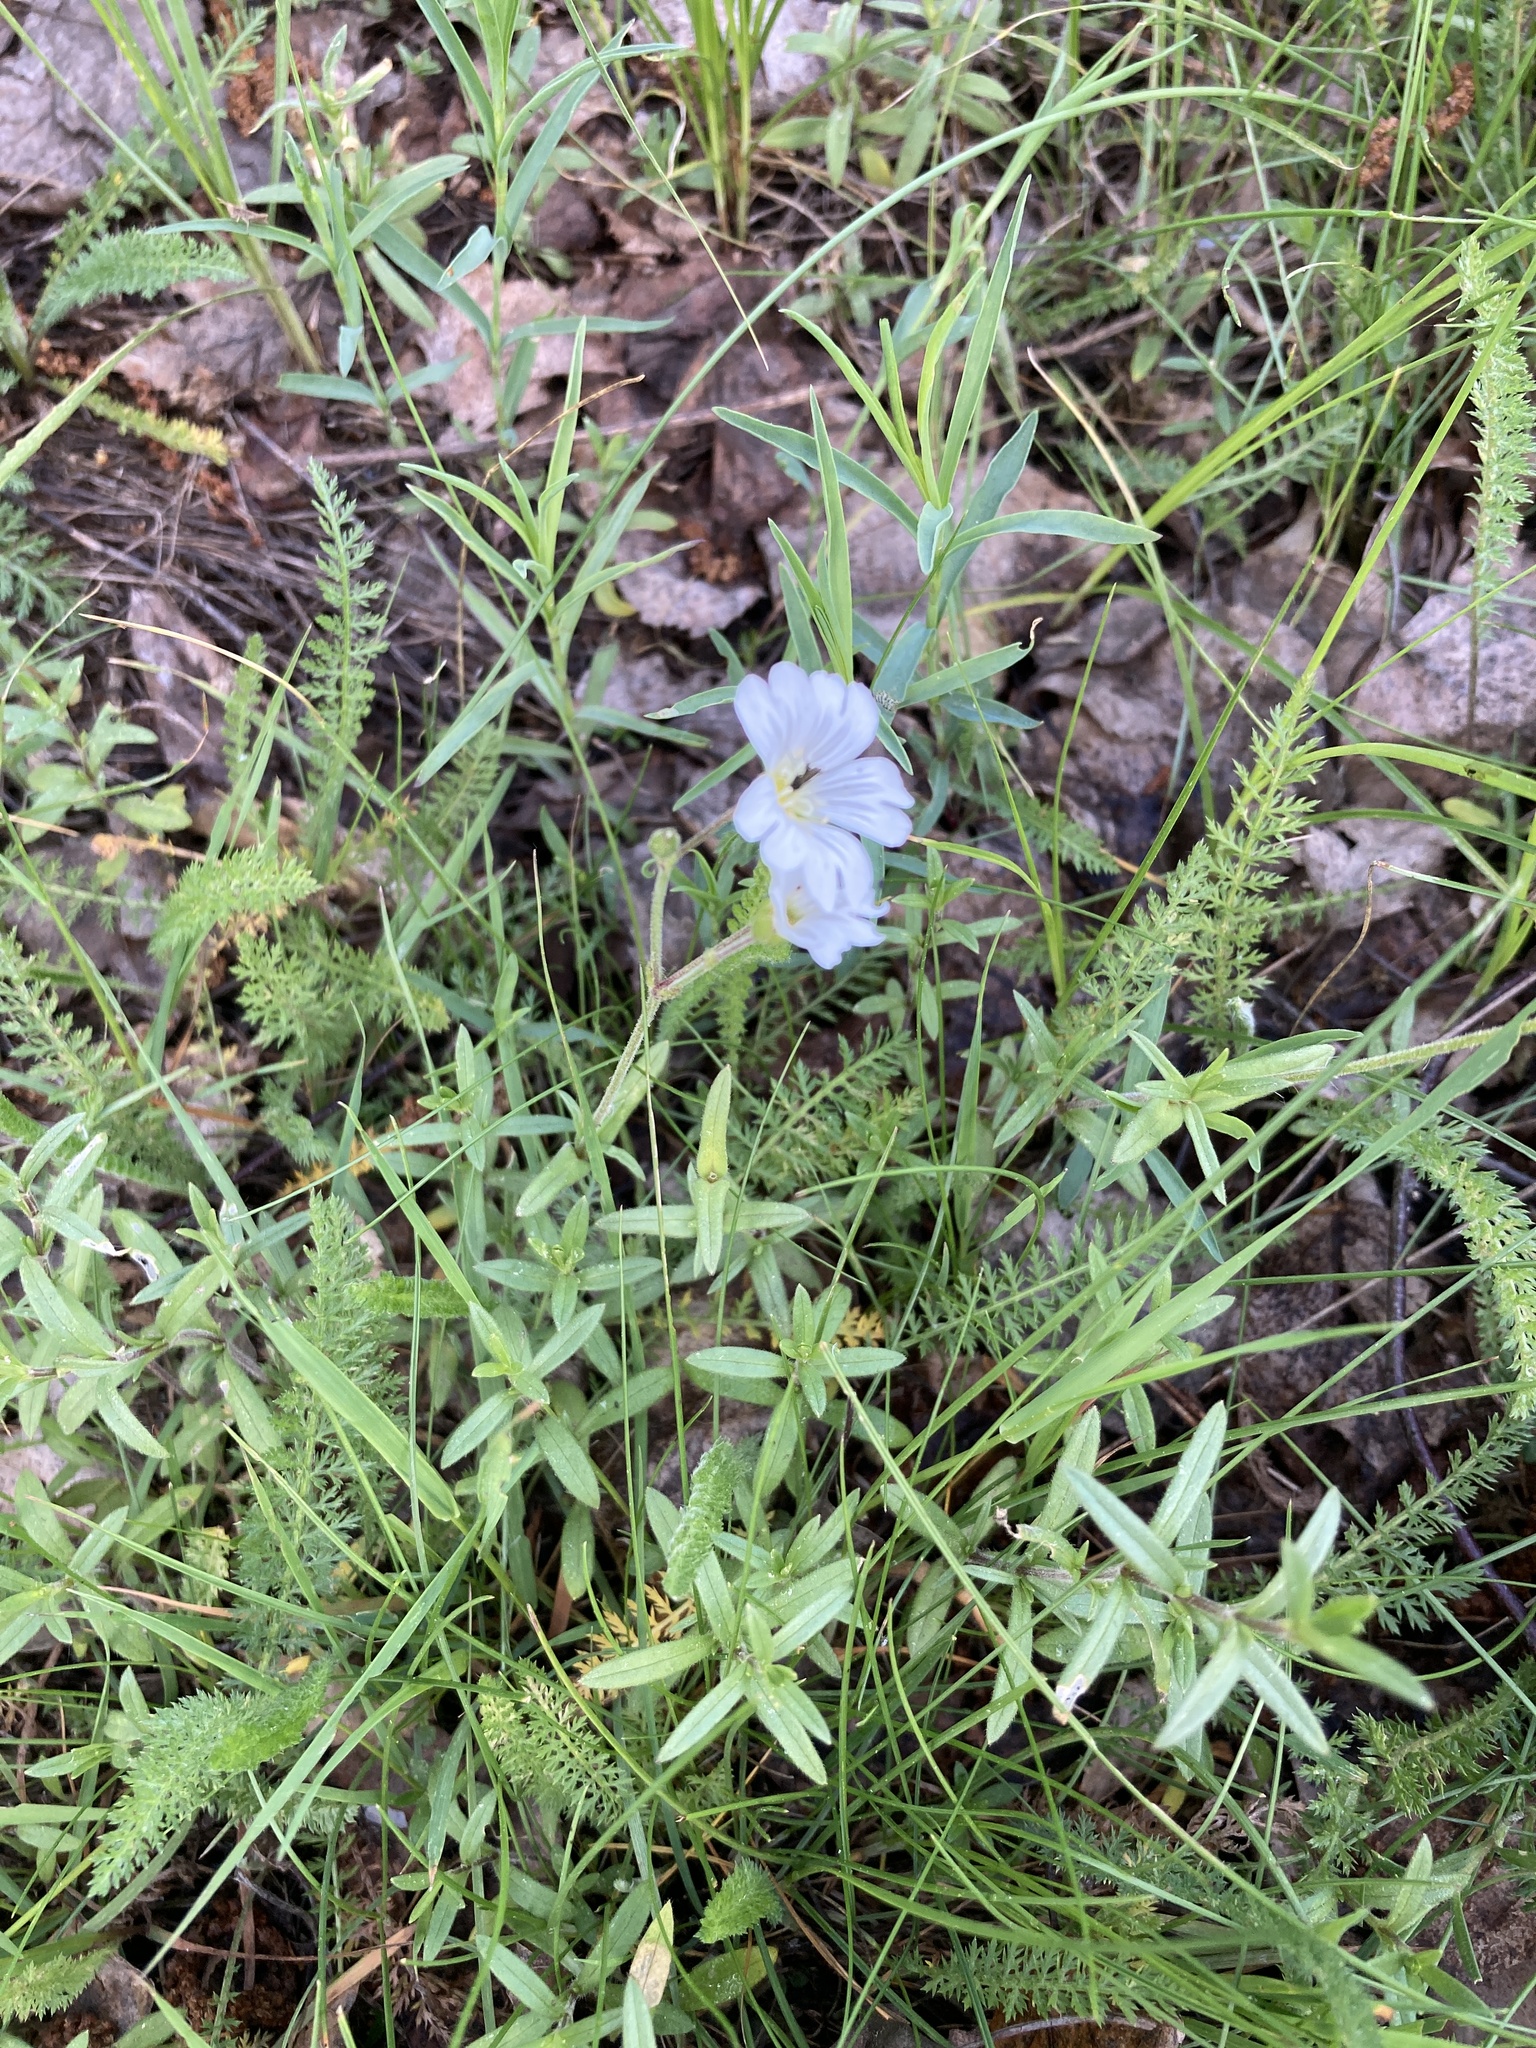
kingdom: Plantae
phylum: Tracheophyta
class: Magnoliopsida
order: Caryophyllales
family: Caryophyllaceae
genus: Cerastium
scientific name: Cerastium arvense
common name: Field mouse-ear
